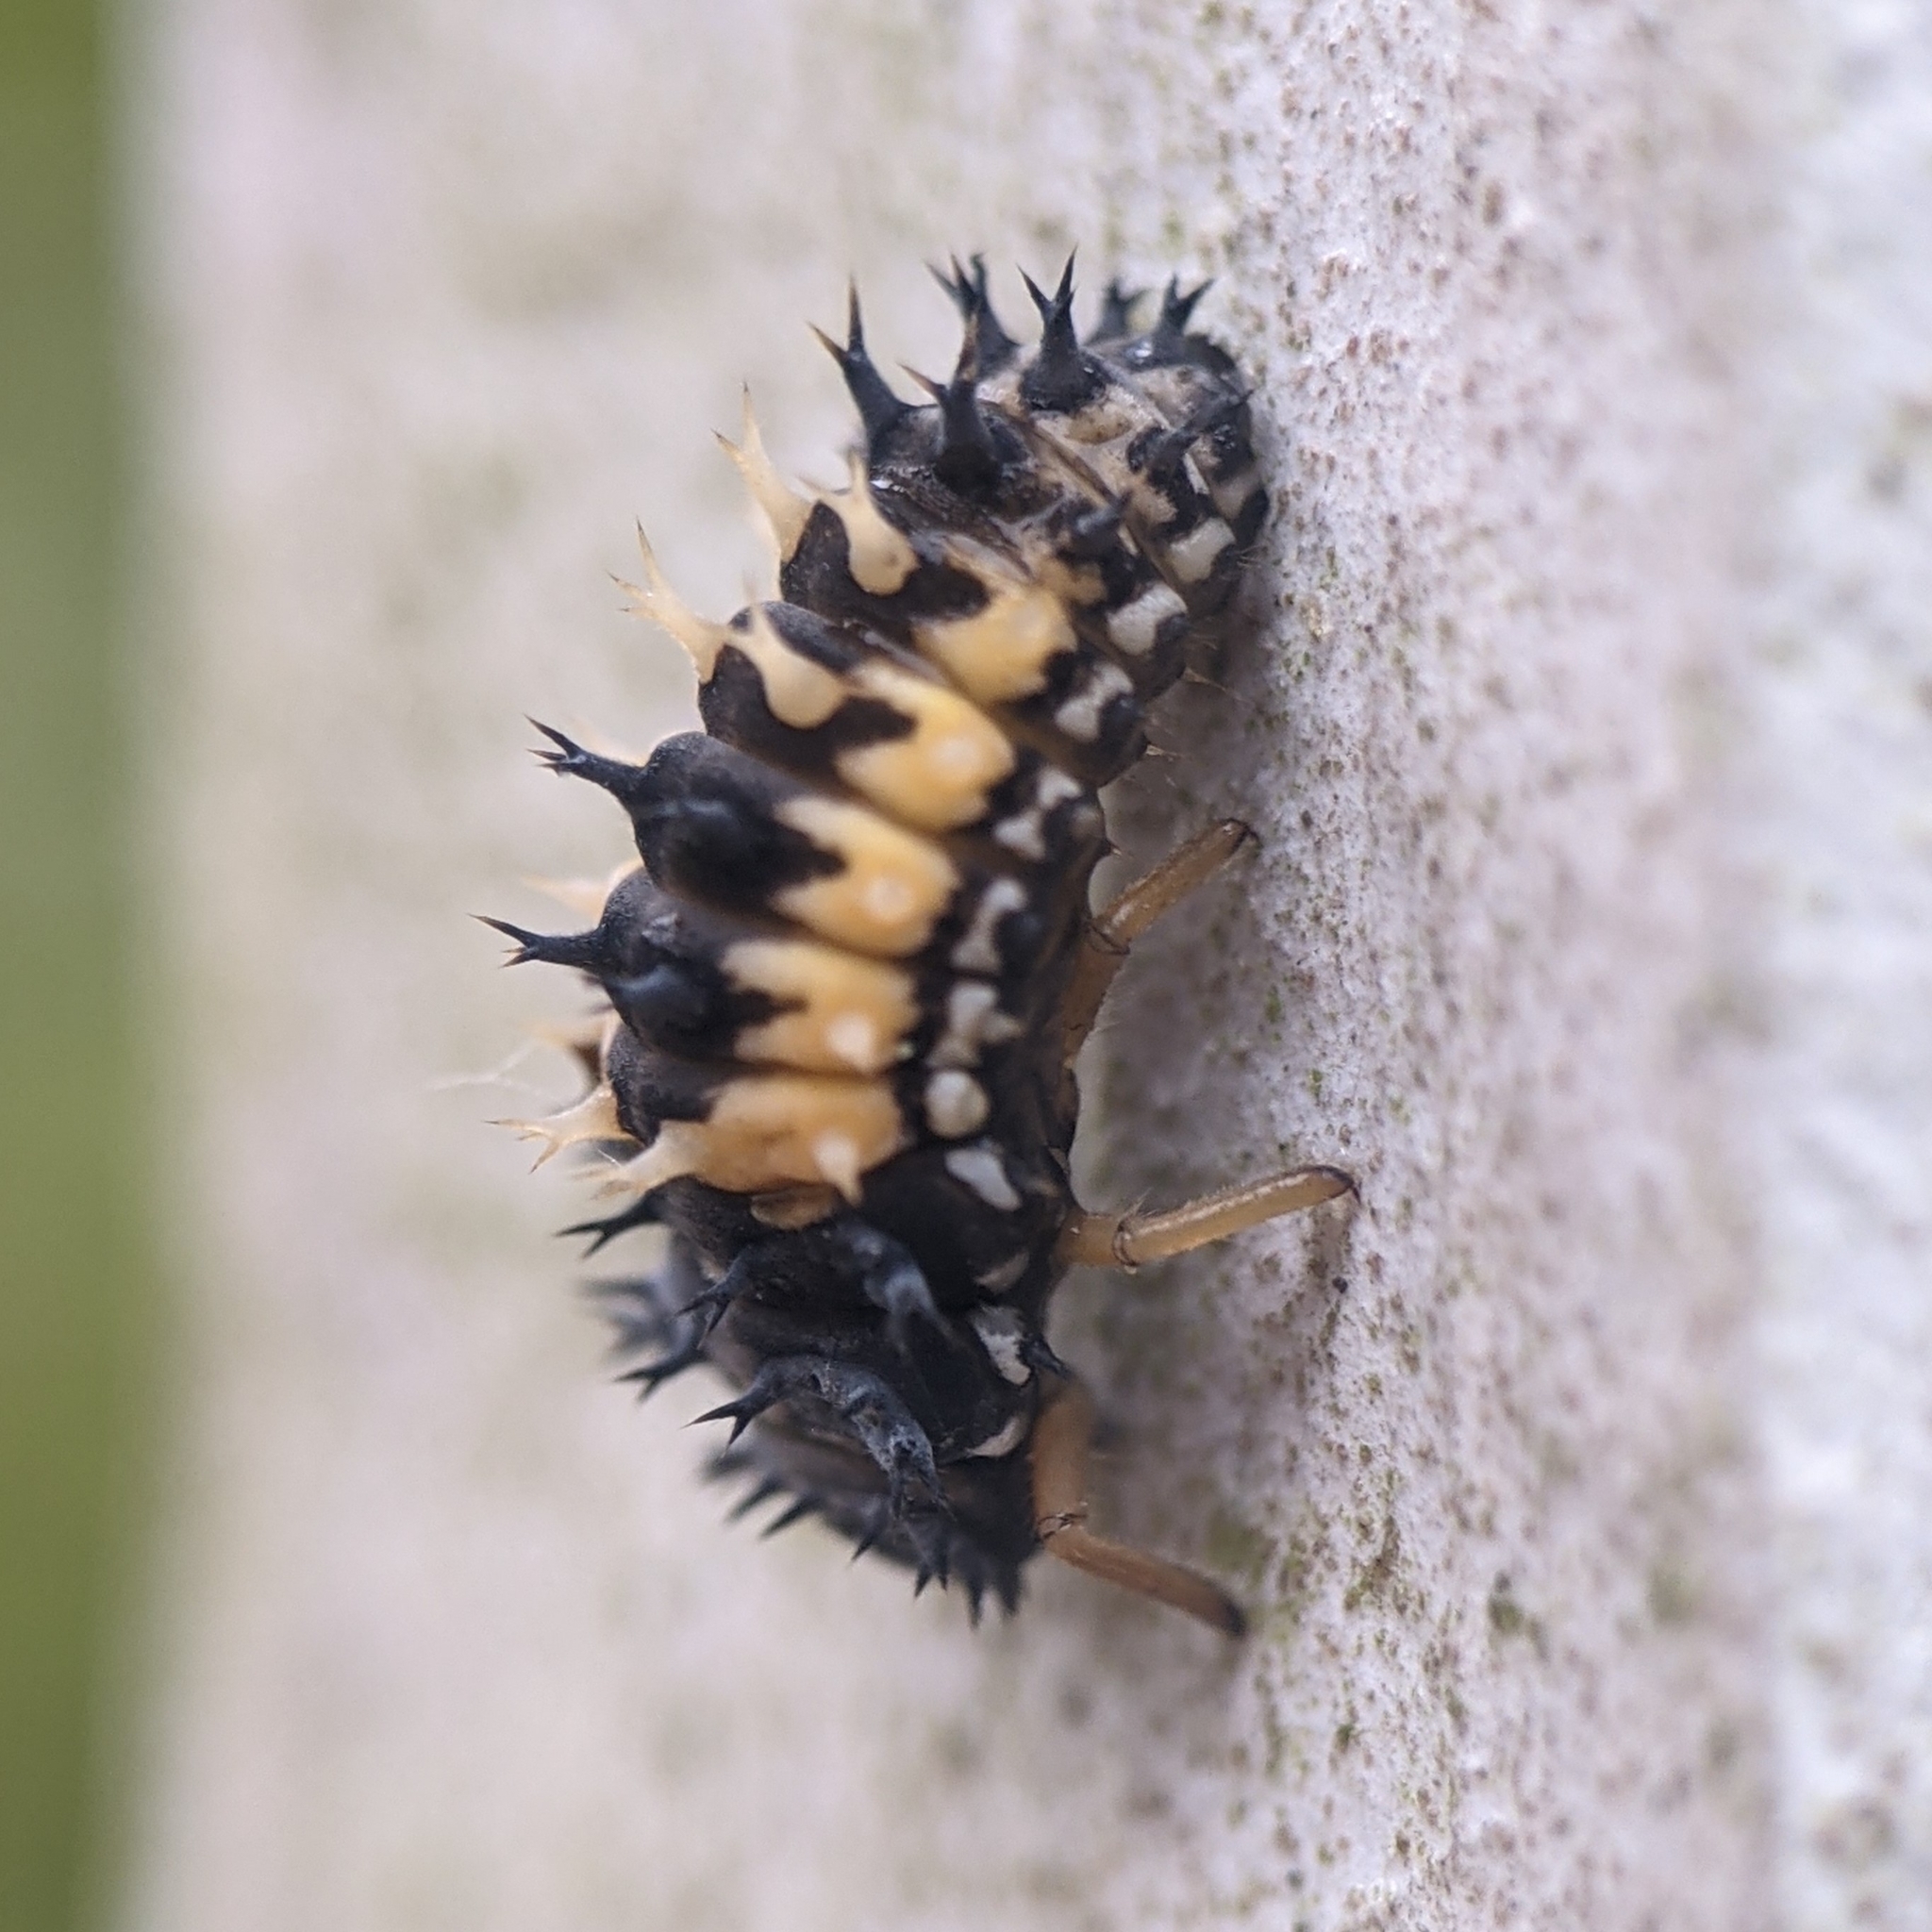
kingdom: Animalia
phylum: Arthropoda
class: Insecta
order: Coleoptera
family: Coccinellidae
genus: Harmonia
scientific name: Harmonia axyridis
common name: Harlequin ladybird
